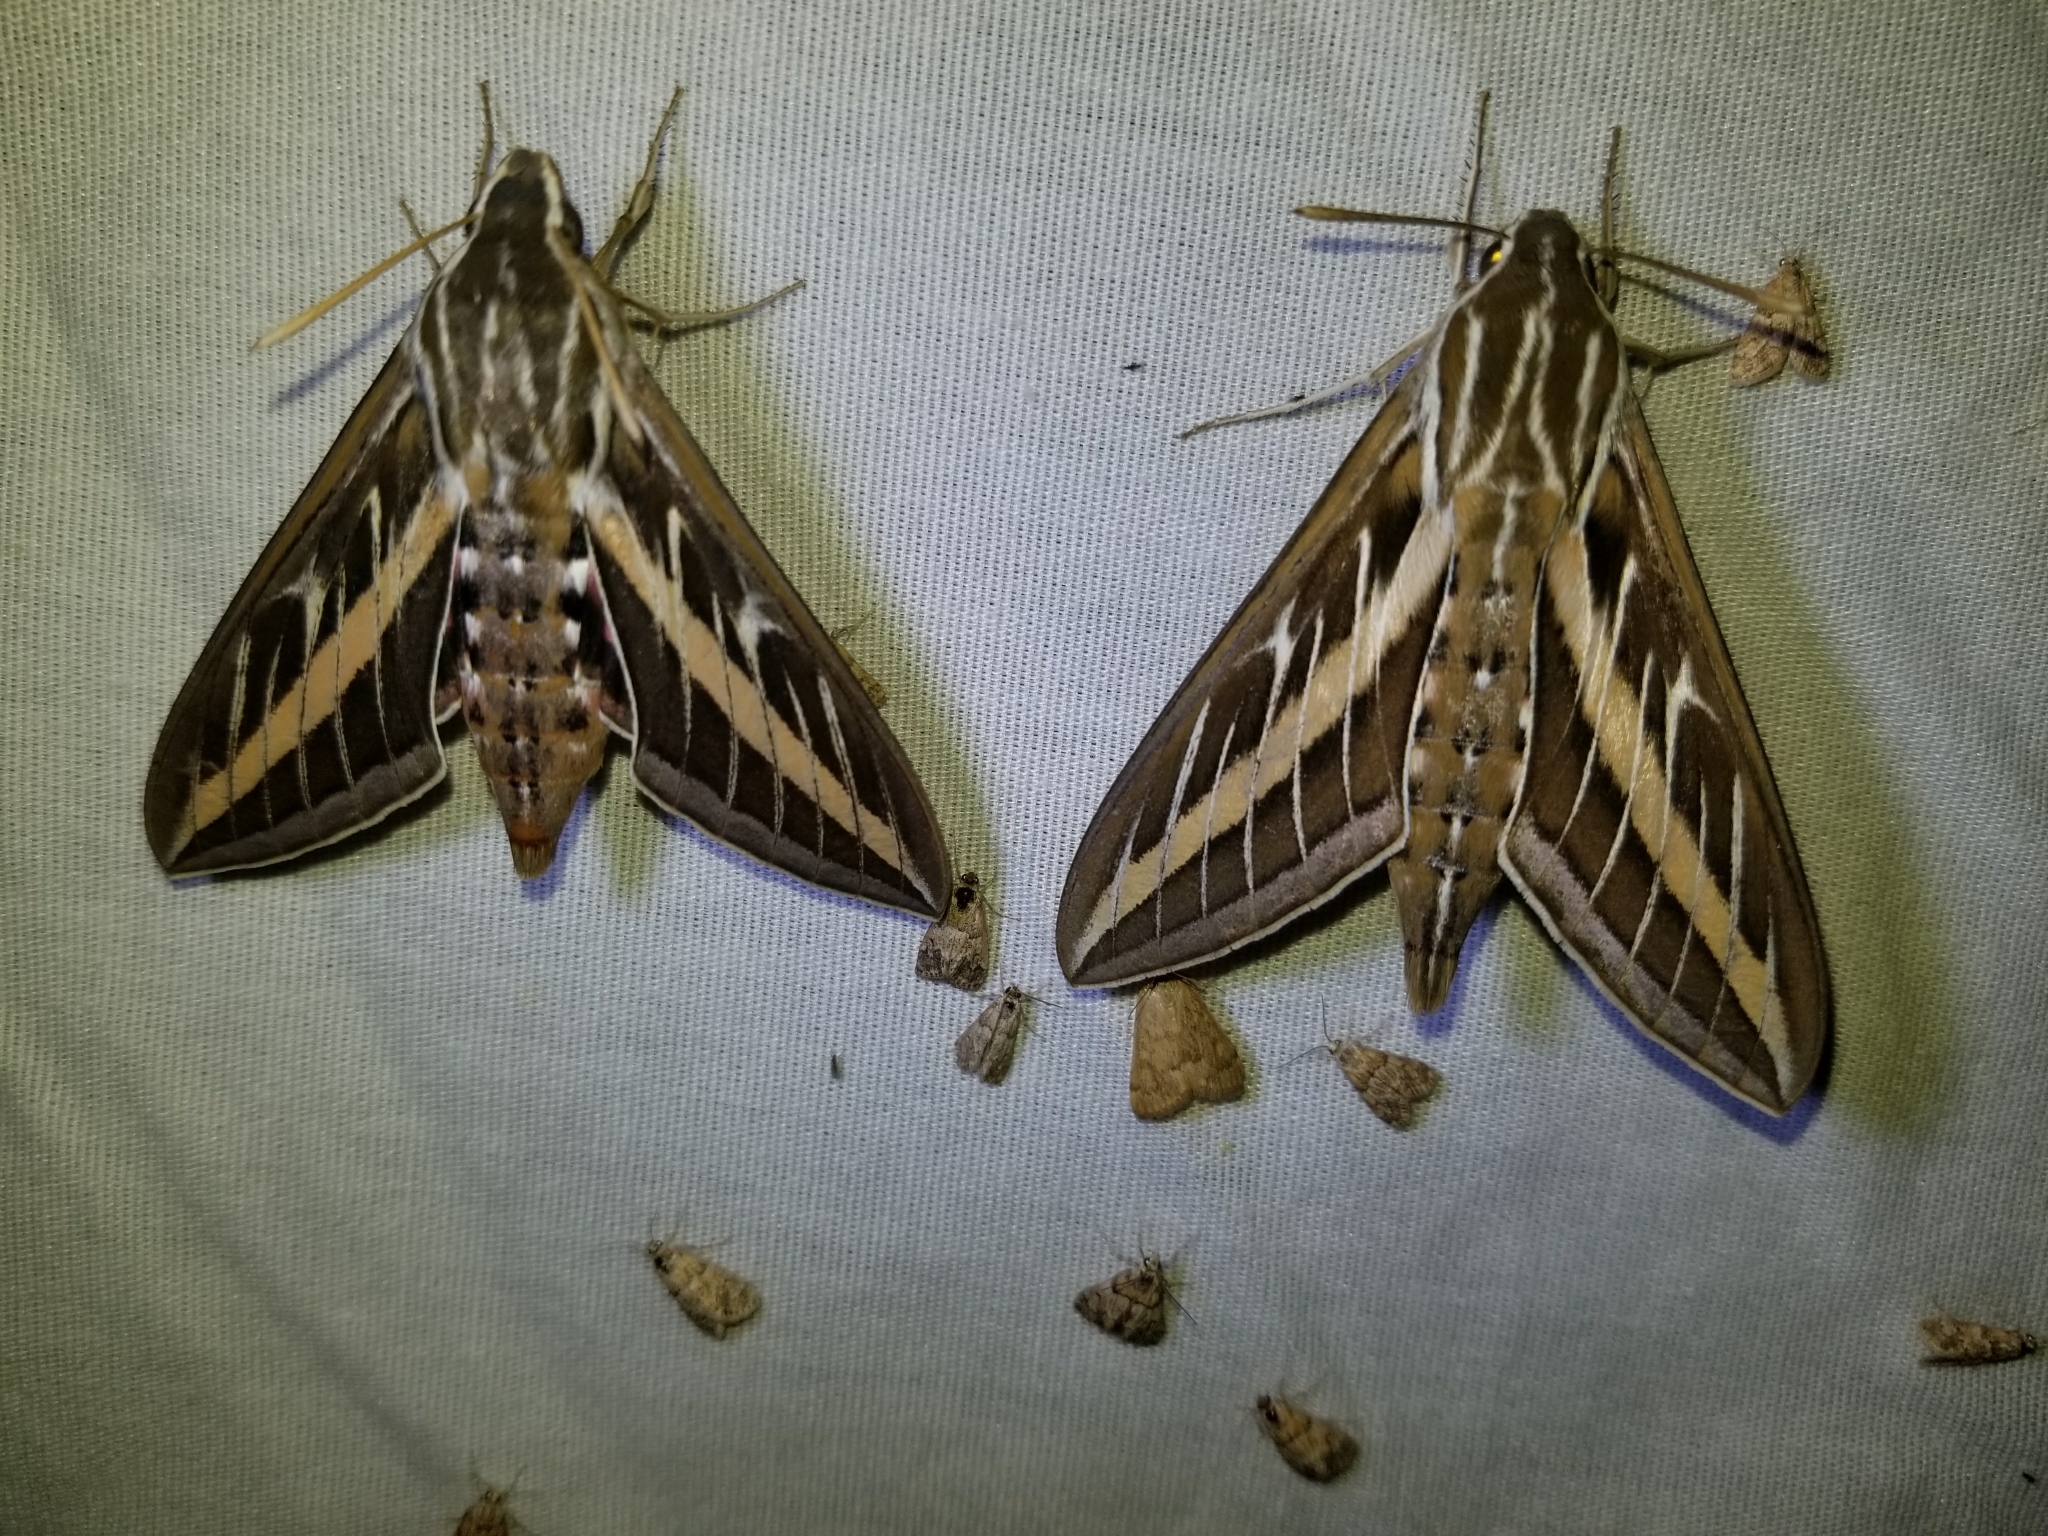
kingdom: Animalia
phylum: Arthropoda
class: Insecta
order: Lepidoptera
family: Sphingidae
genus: Hyles
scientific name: Hyles lineata
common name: White-lined sphinx
